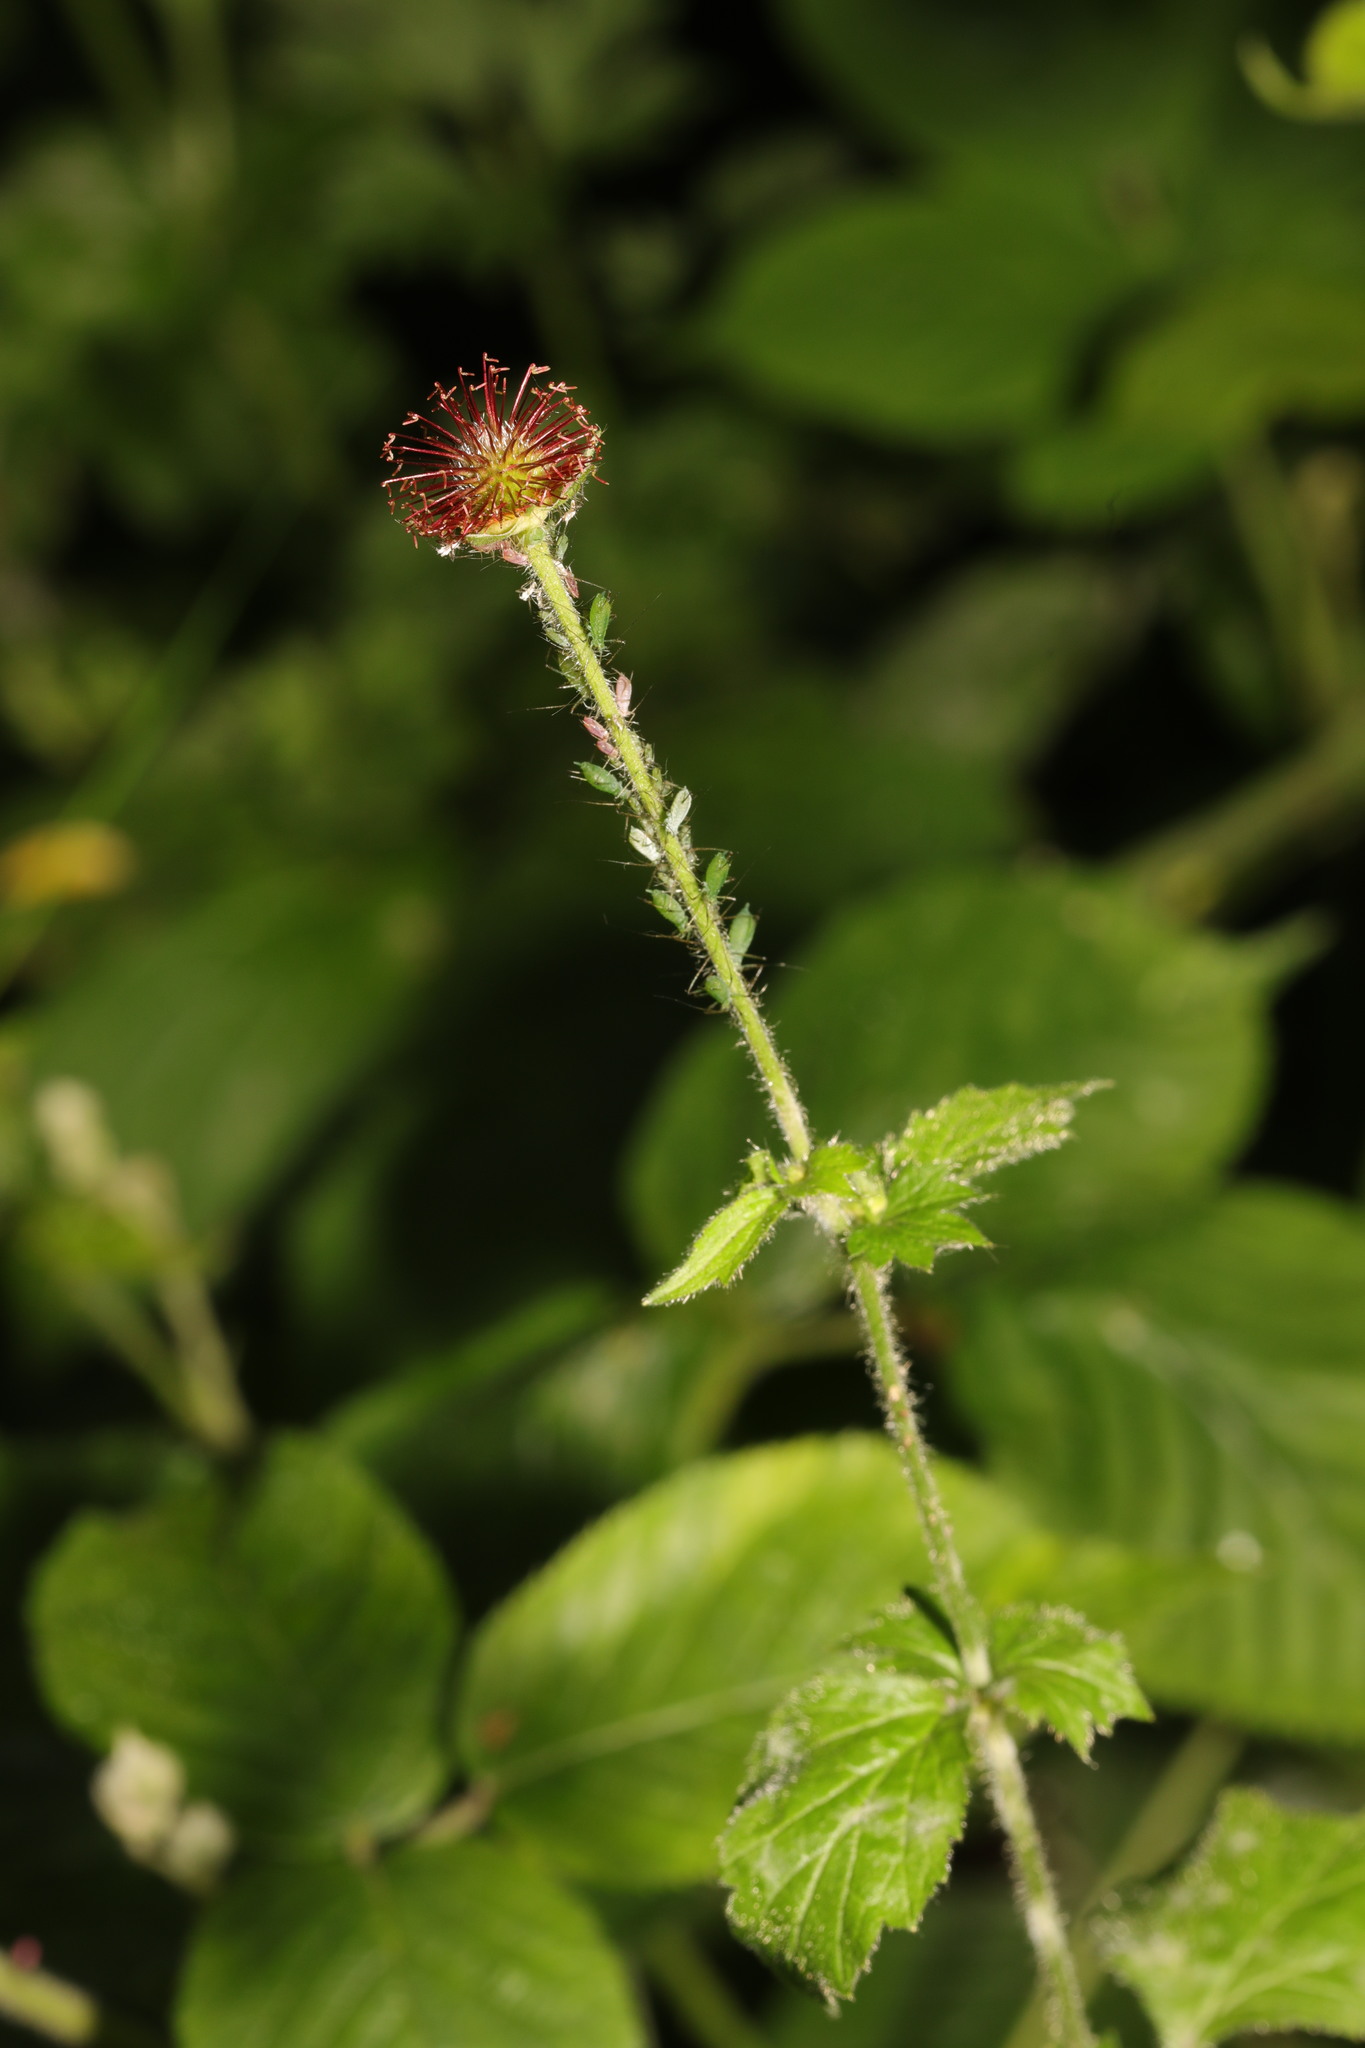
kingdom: Plantae
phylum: Tracheophyta
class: Magnoliopsida
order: Rosales
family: Rosaceae
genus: Geum
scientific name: Geum urbanum
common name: Wood avens
